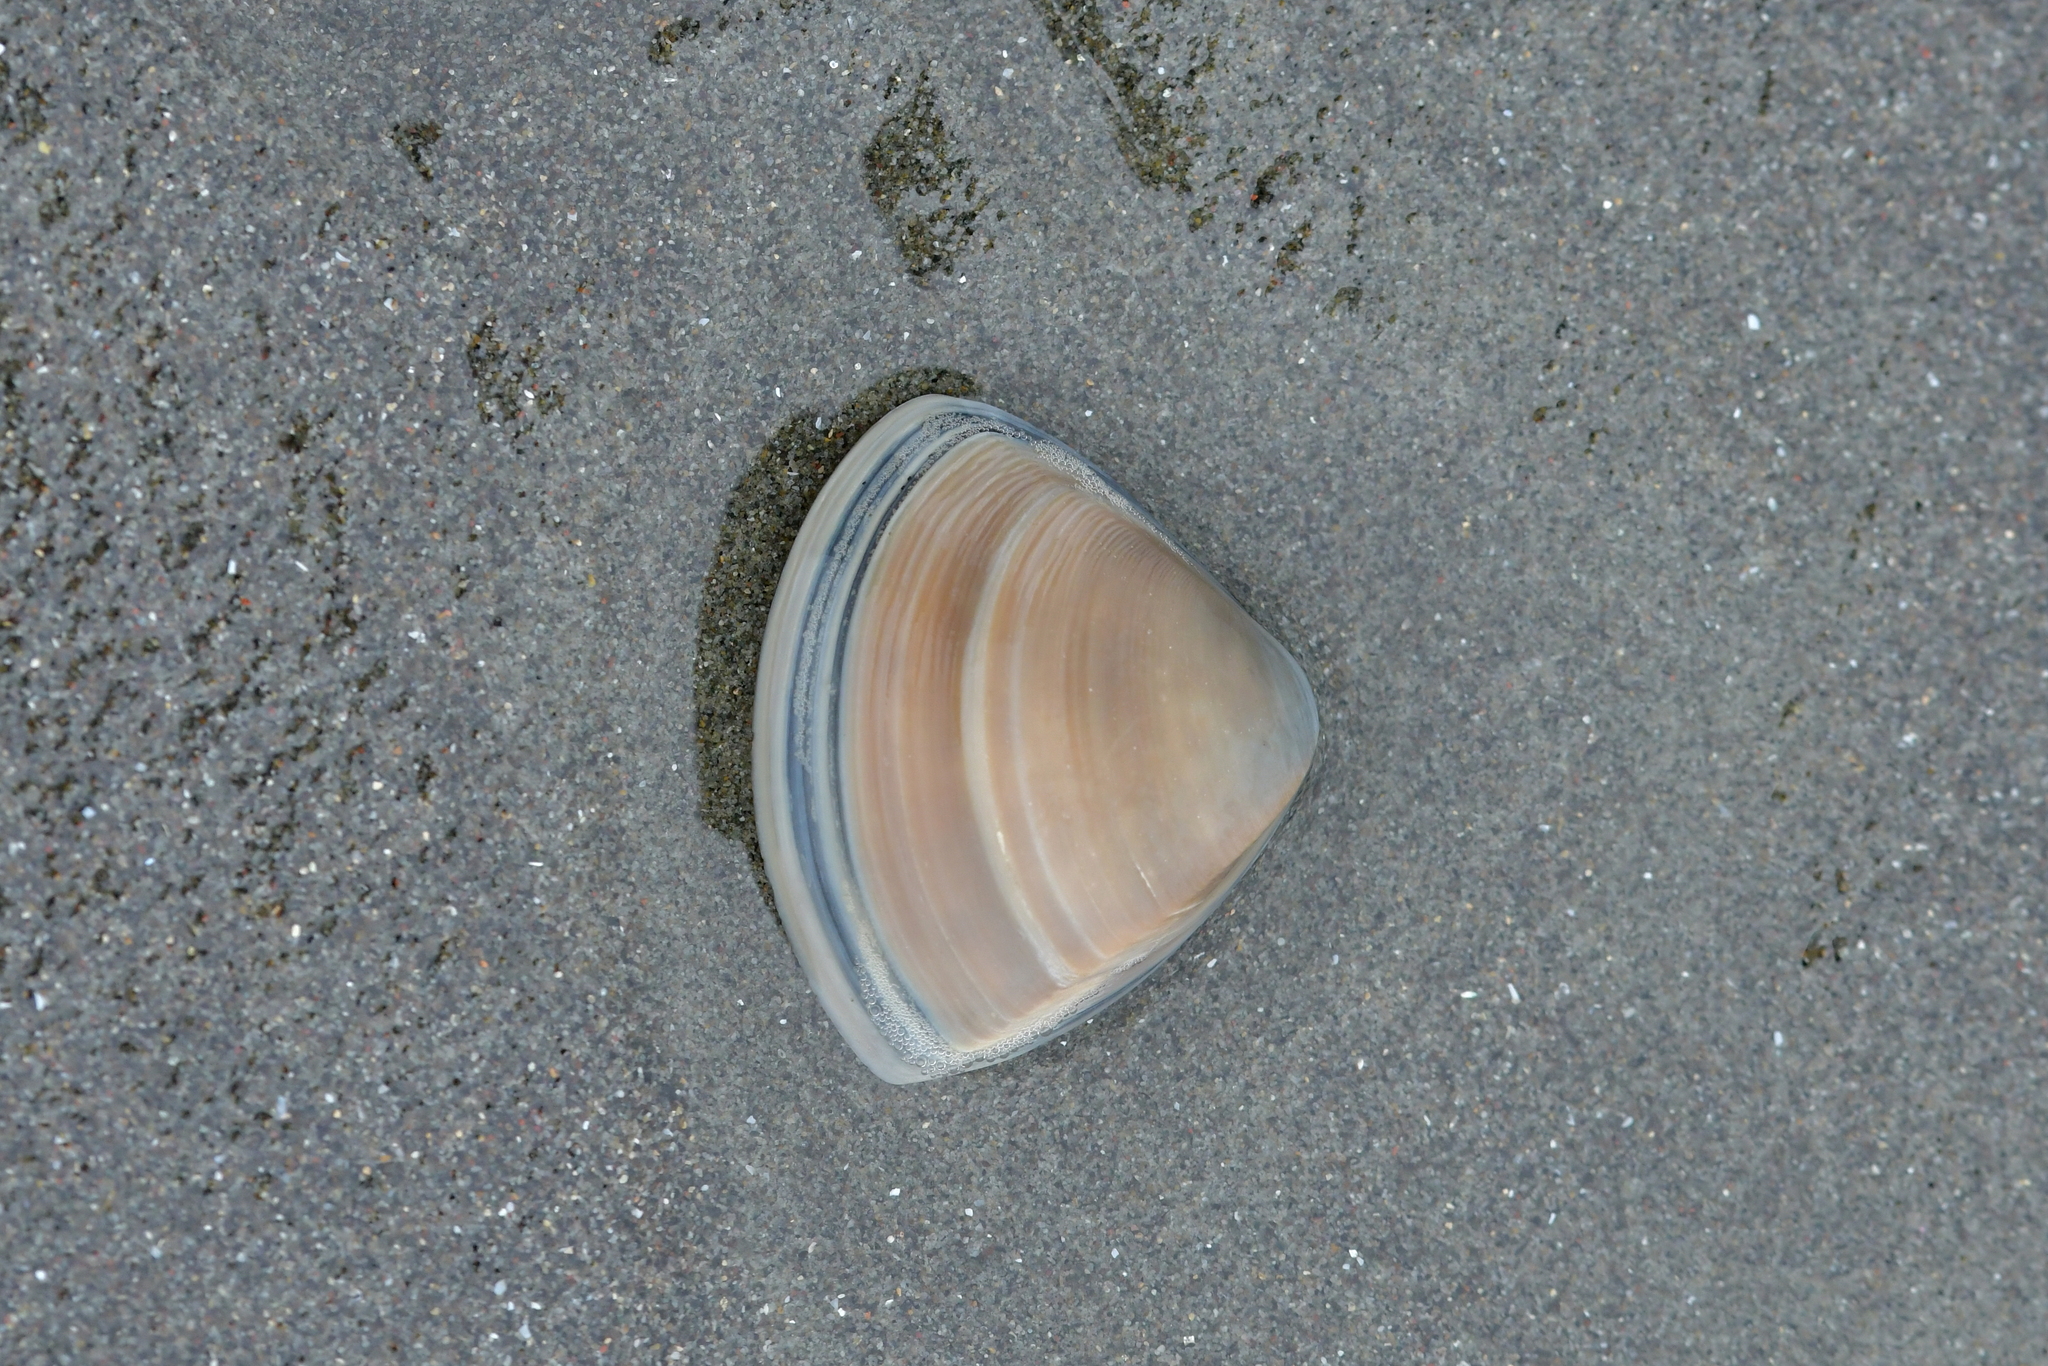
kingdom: Animalia
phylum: Mollusca
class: Bivalvia
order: Venerida
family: Mactridae
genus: Crassula
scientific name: Crassula aequilatera
